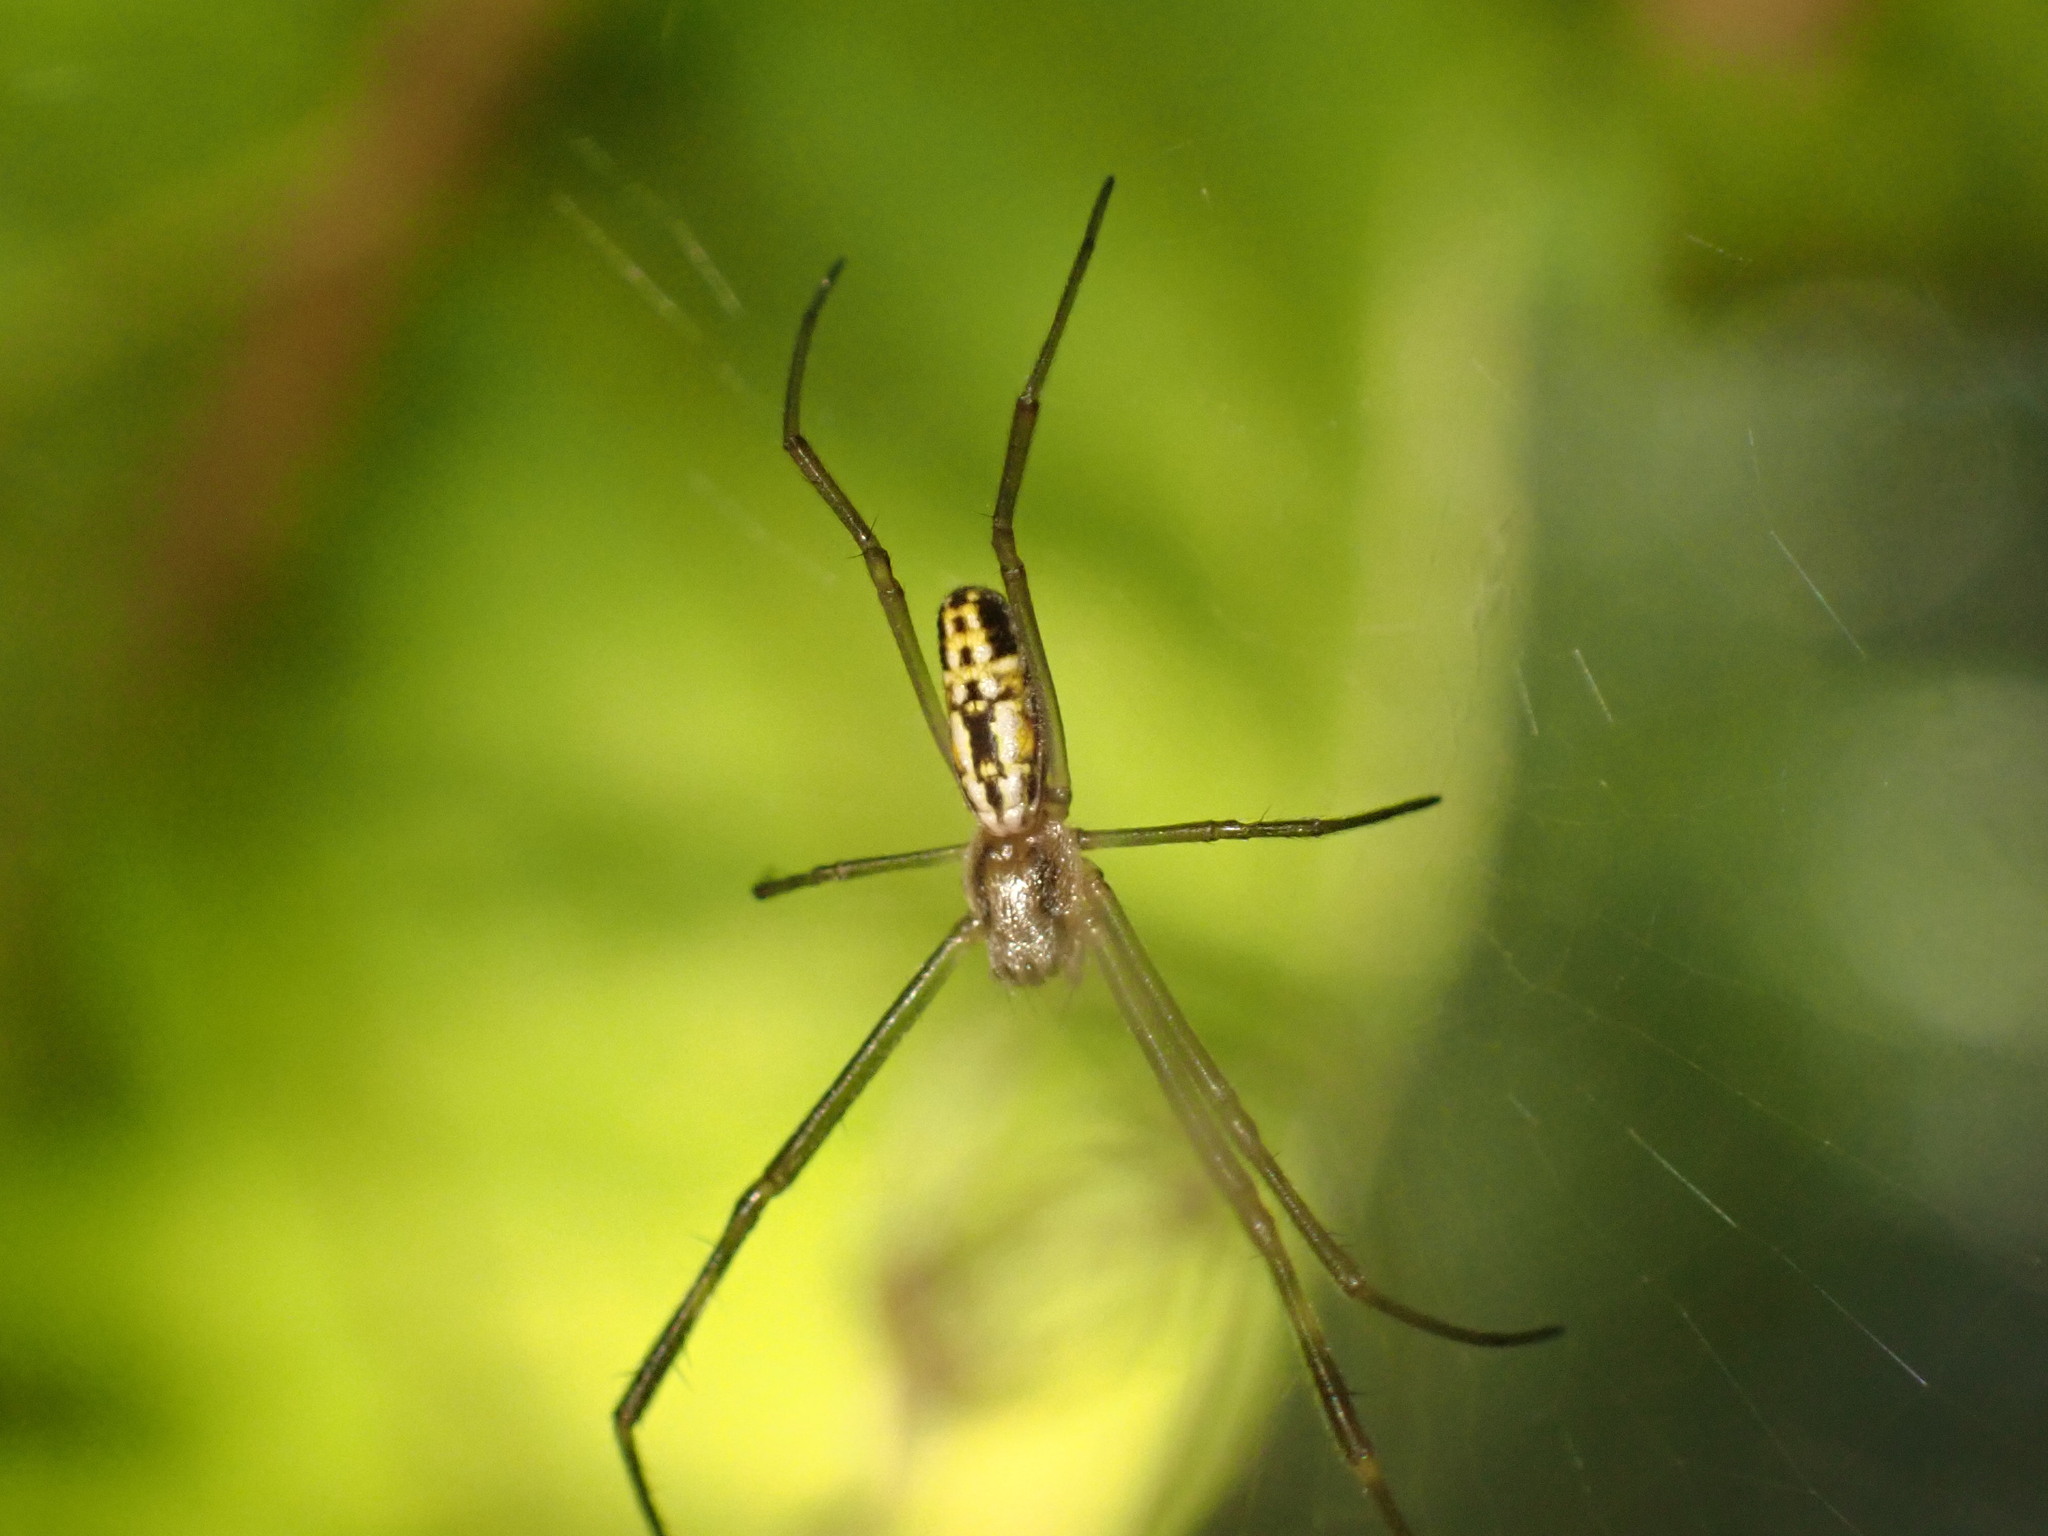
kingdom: Animalia
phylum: Arthropoda
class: Arachnida
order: Araneae
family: Araneidae
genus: Trichonephila
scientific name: Trichonephila clavipes
